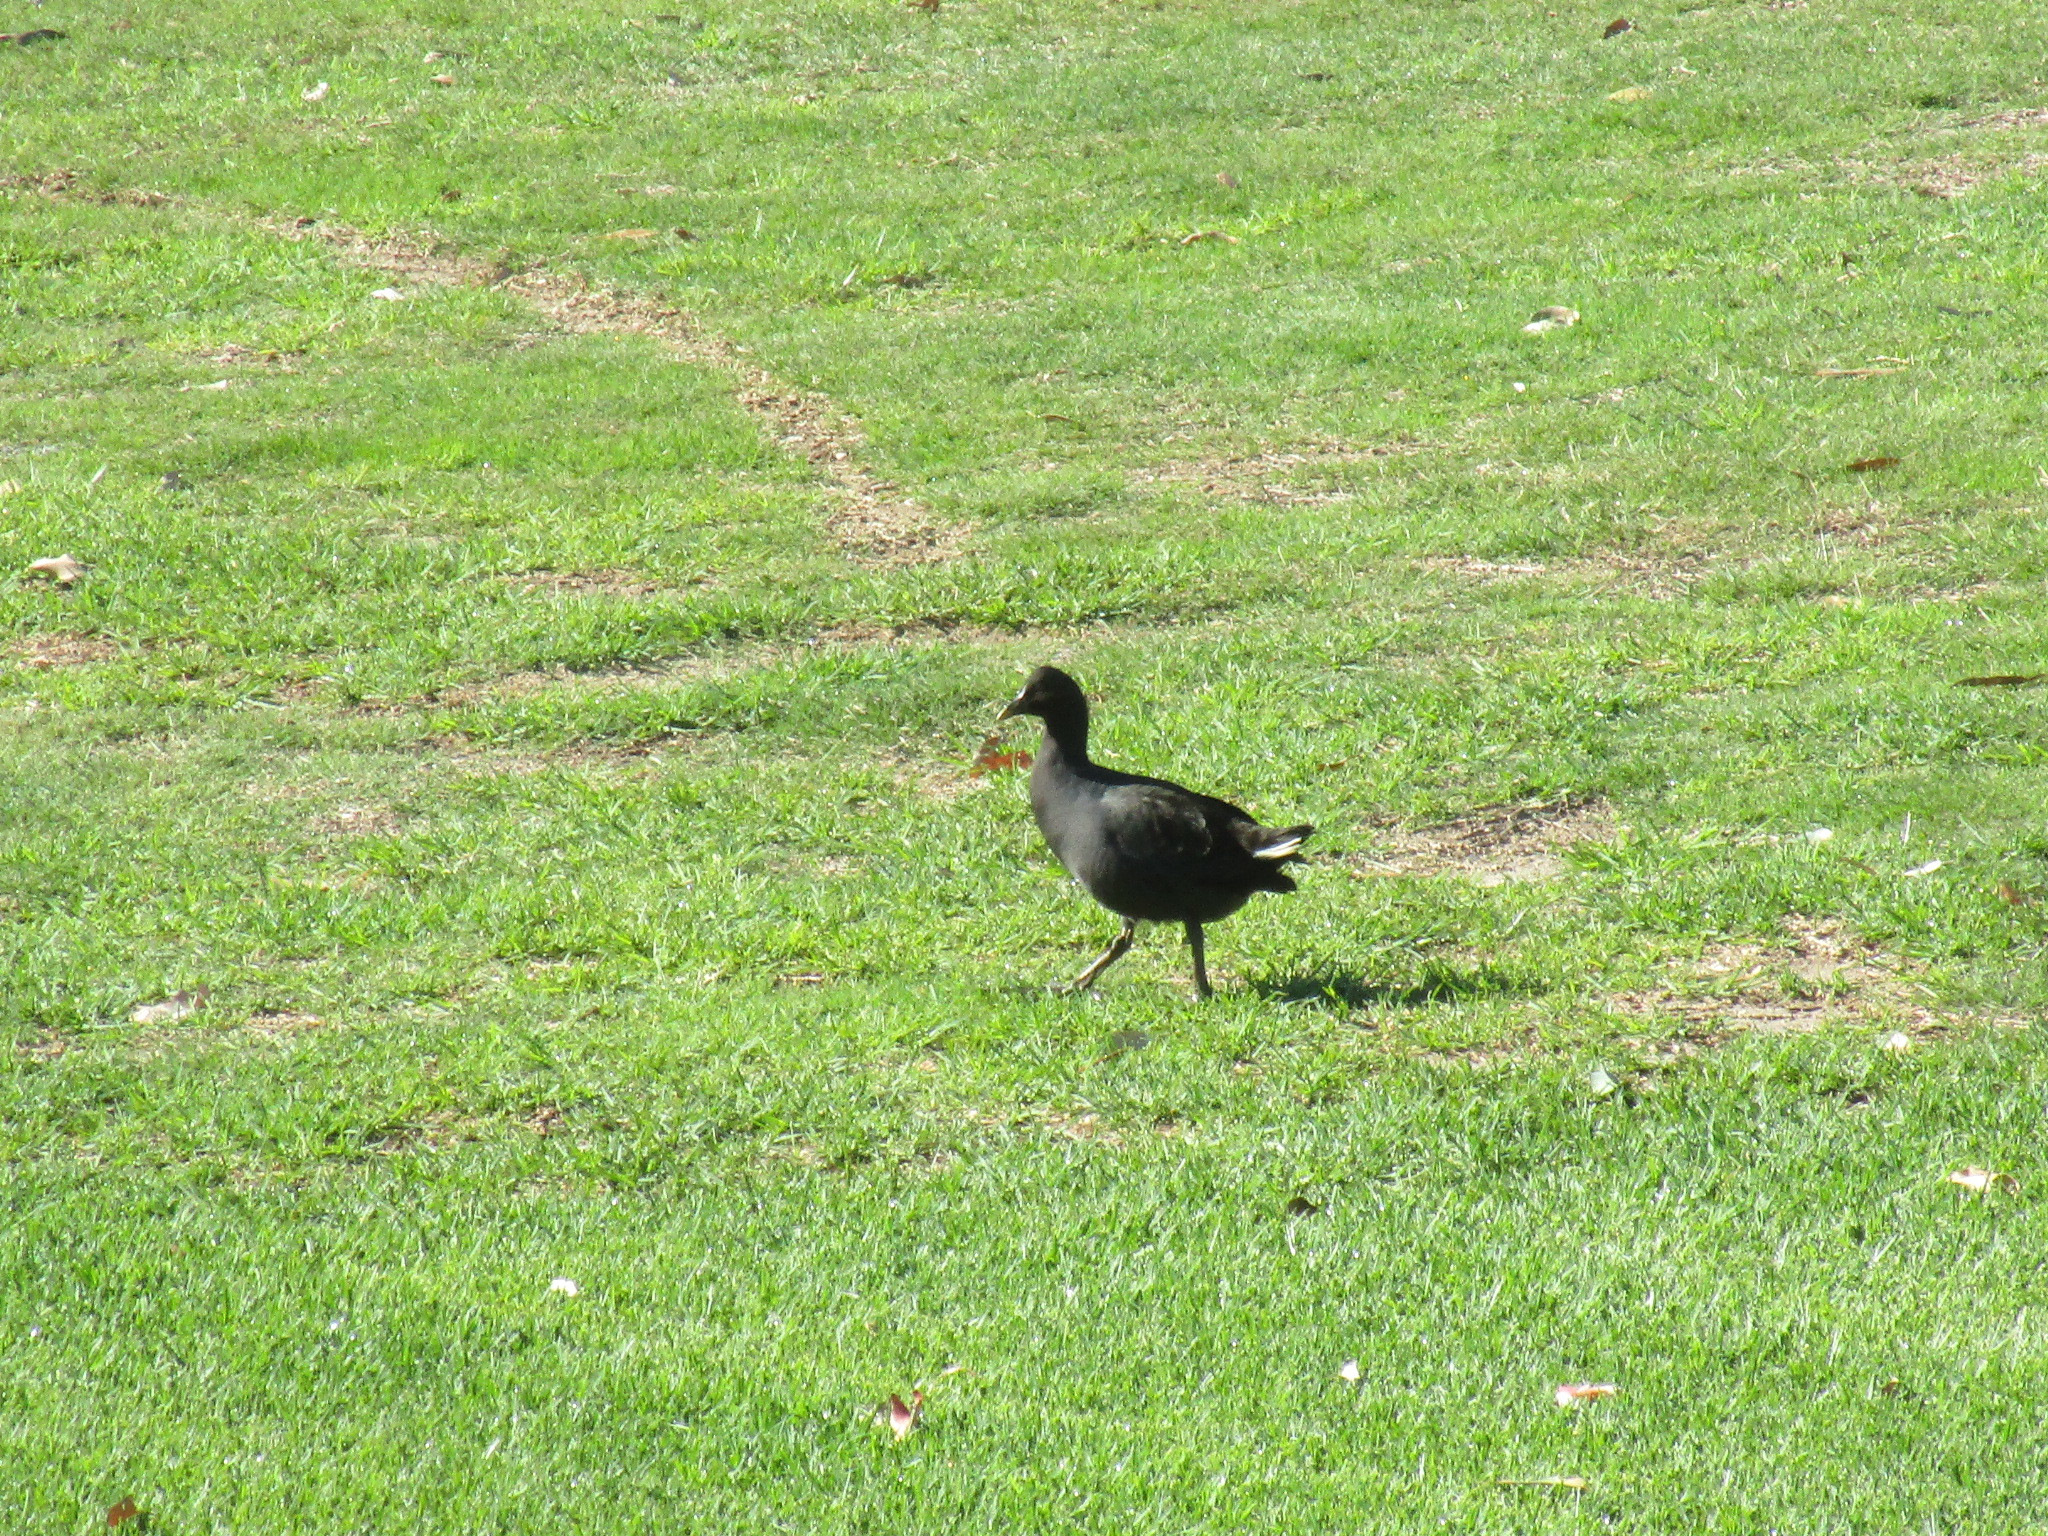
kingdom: Animalia
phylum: Chordata
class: Aves
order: Gruiformes
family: Rallidae
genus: Gallinula
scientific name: Gallinula tenebrosa
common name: Dusky moorhen
